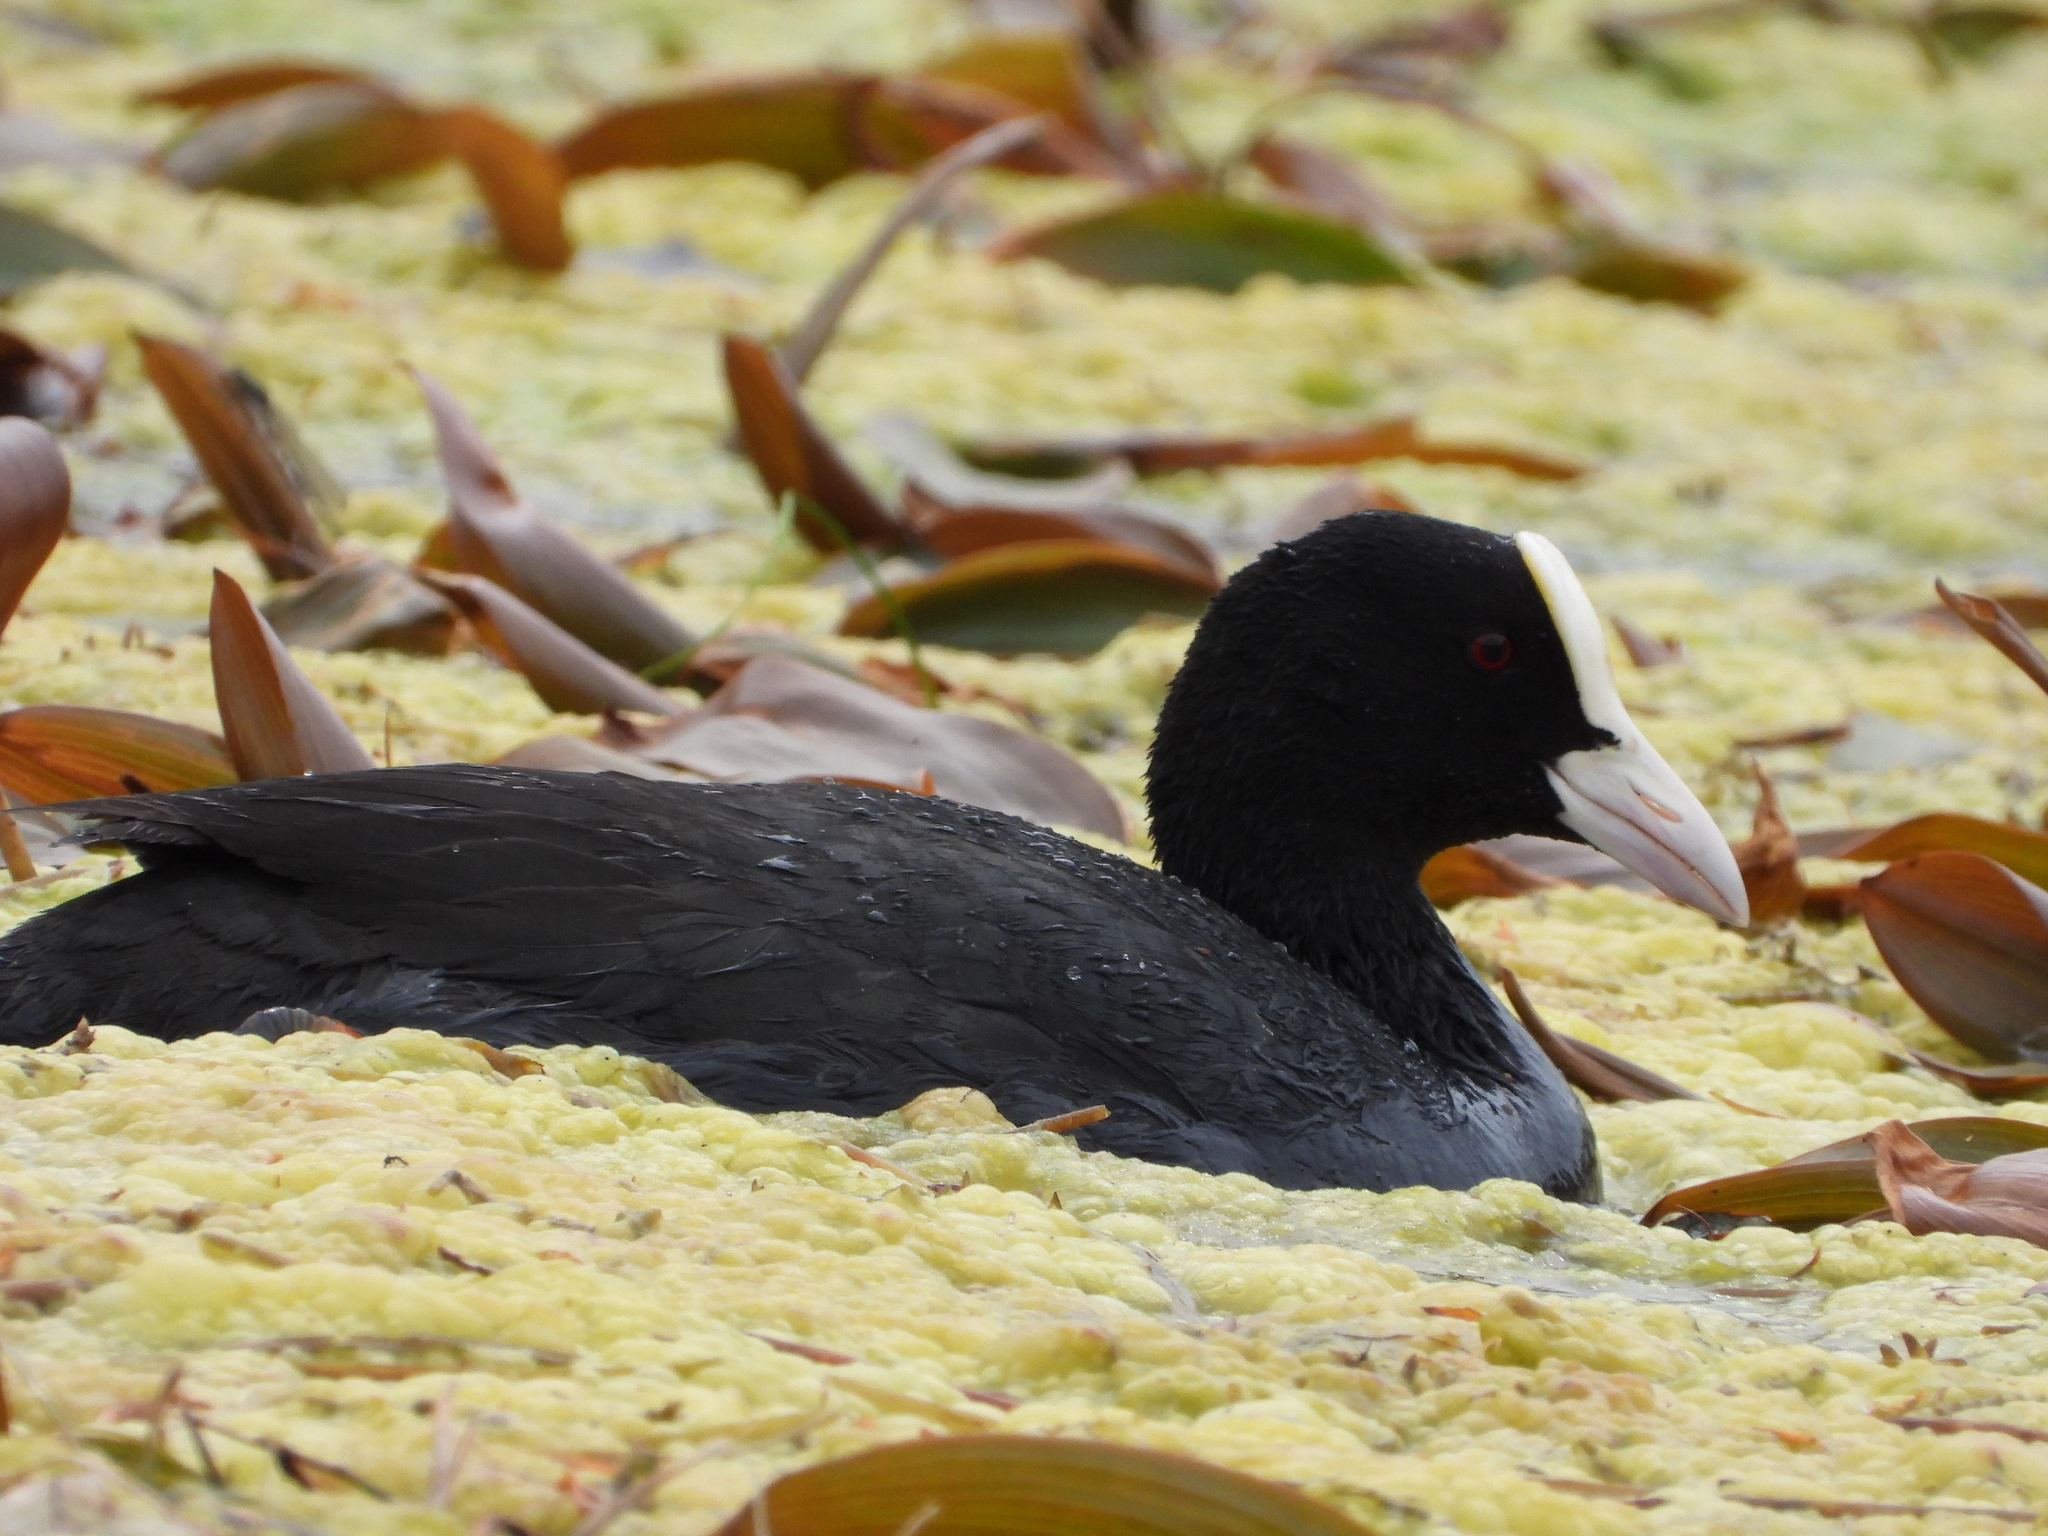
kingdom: Animalia
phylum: Chordata
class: Aves
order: Gruiformes
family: Rallidae
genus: Fulica
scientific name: Fulica atra
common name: Eurasian coot
